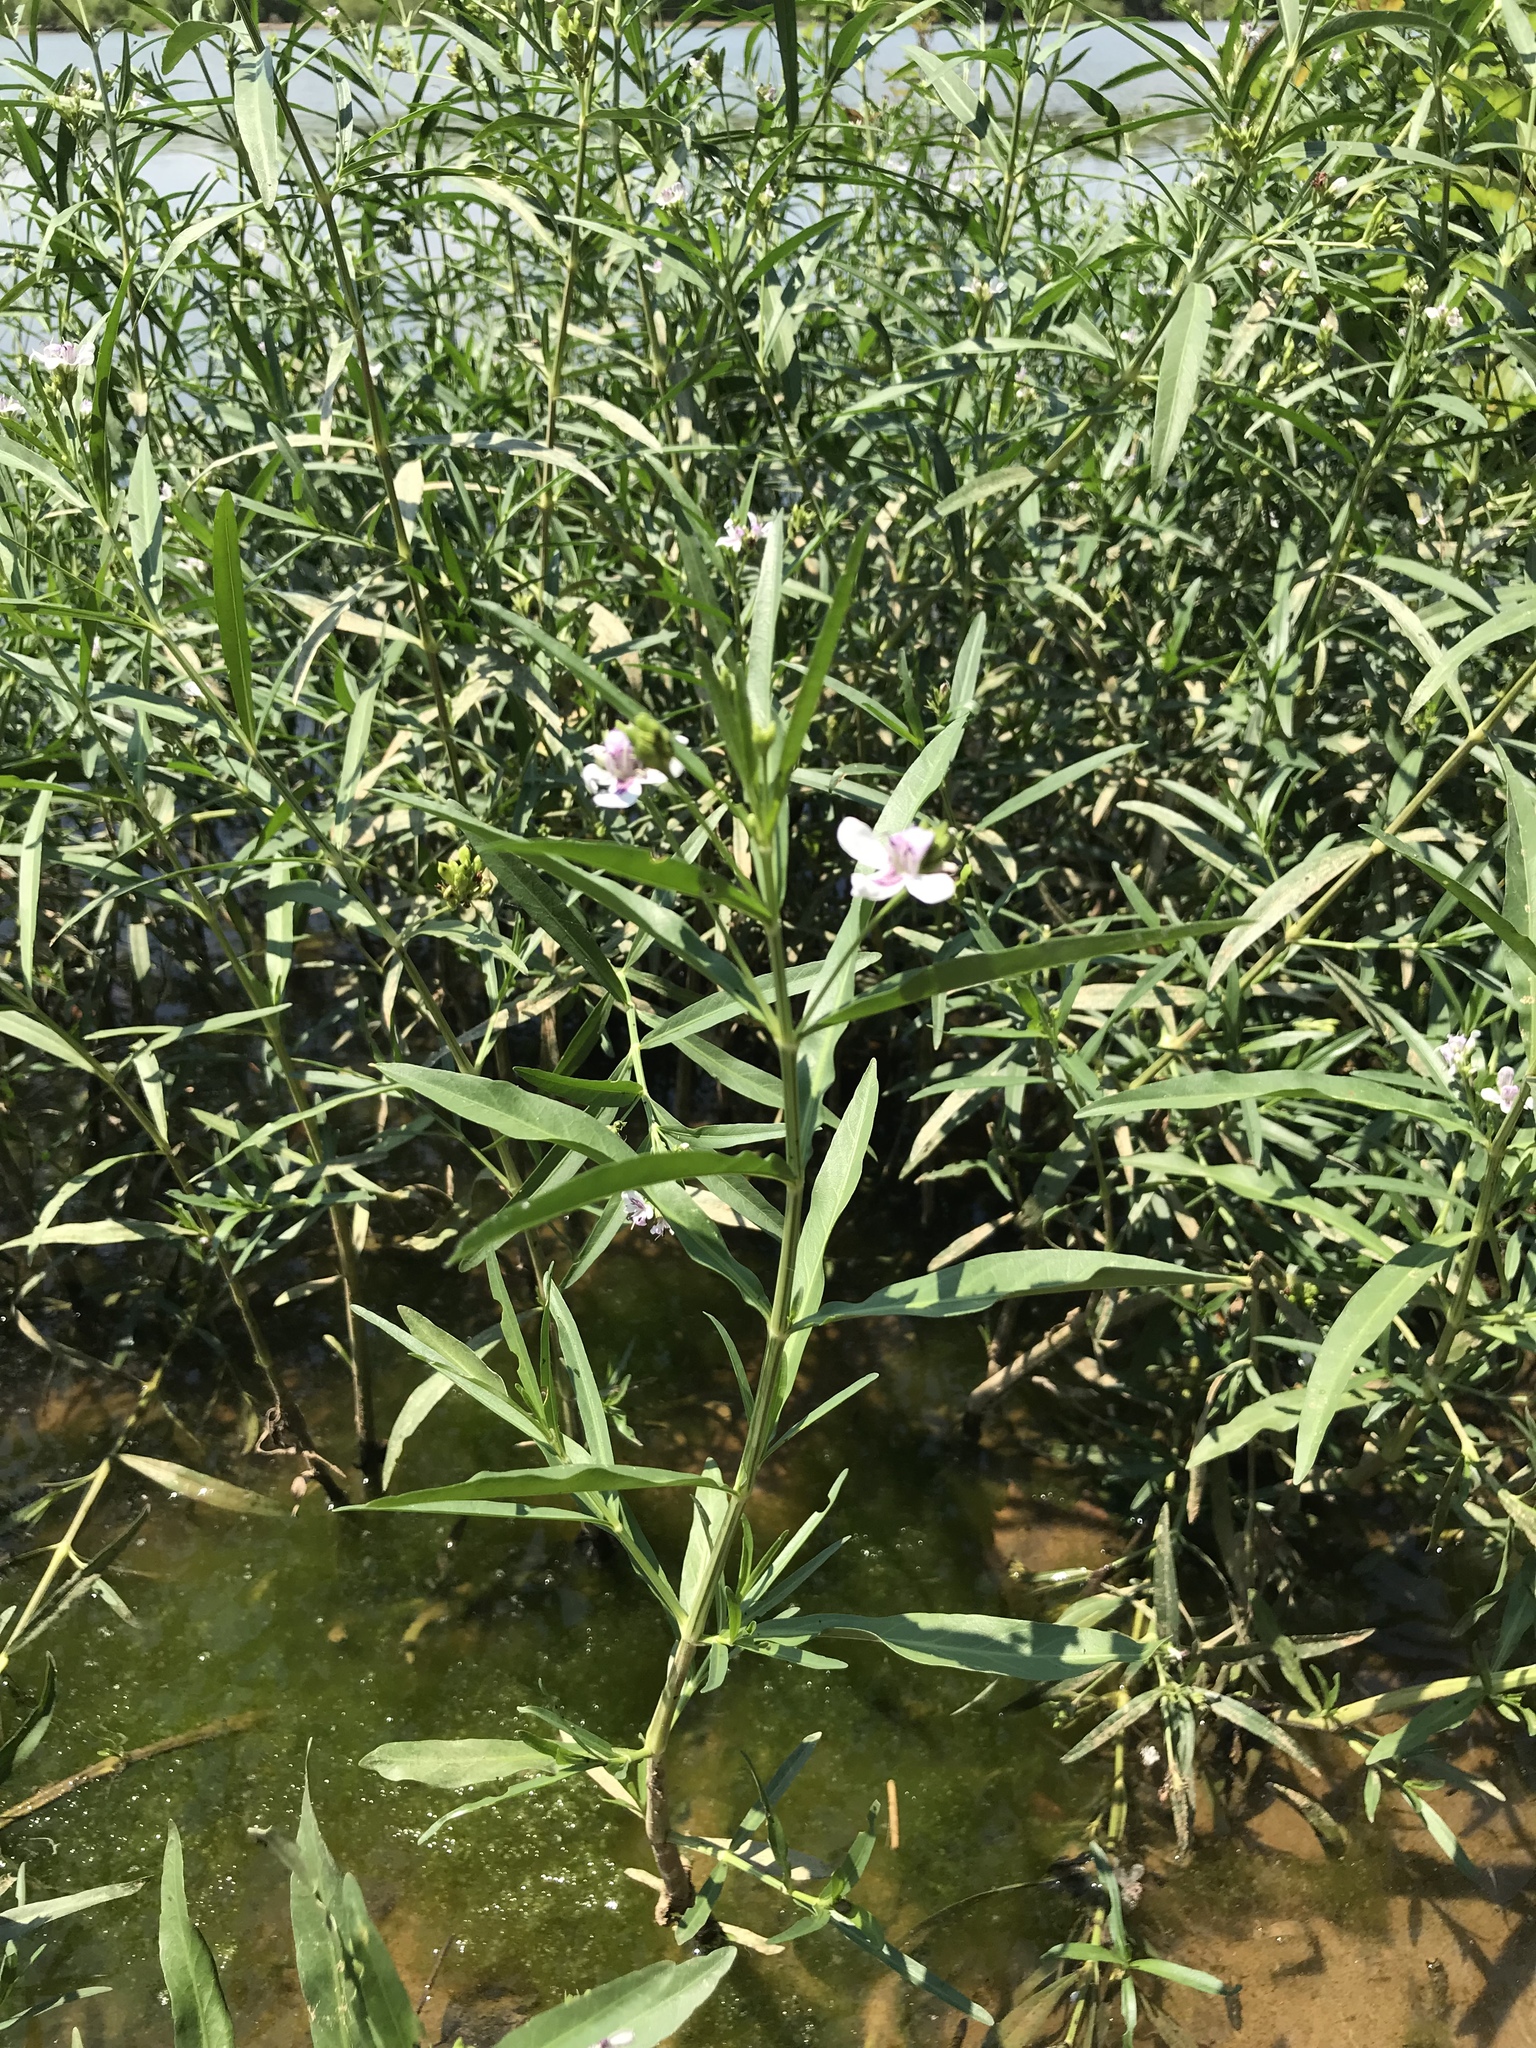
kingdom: Plantae
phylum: Tracheophyta
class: Magnoliopsida
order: Lamiales
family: Acanthaceae
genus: Dianthera
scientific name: Dianthera americana
